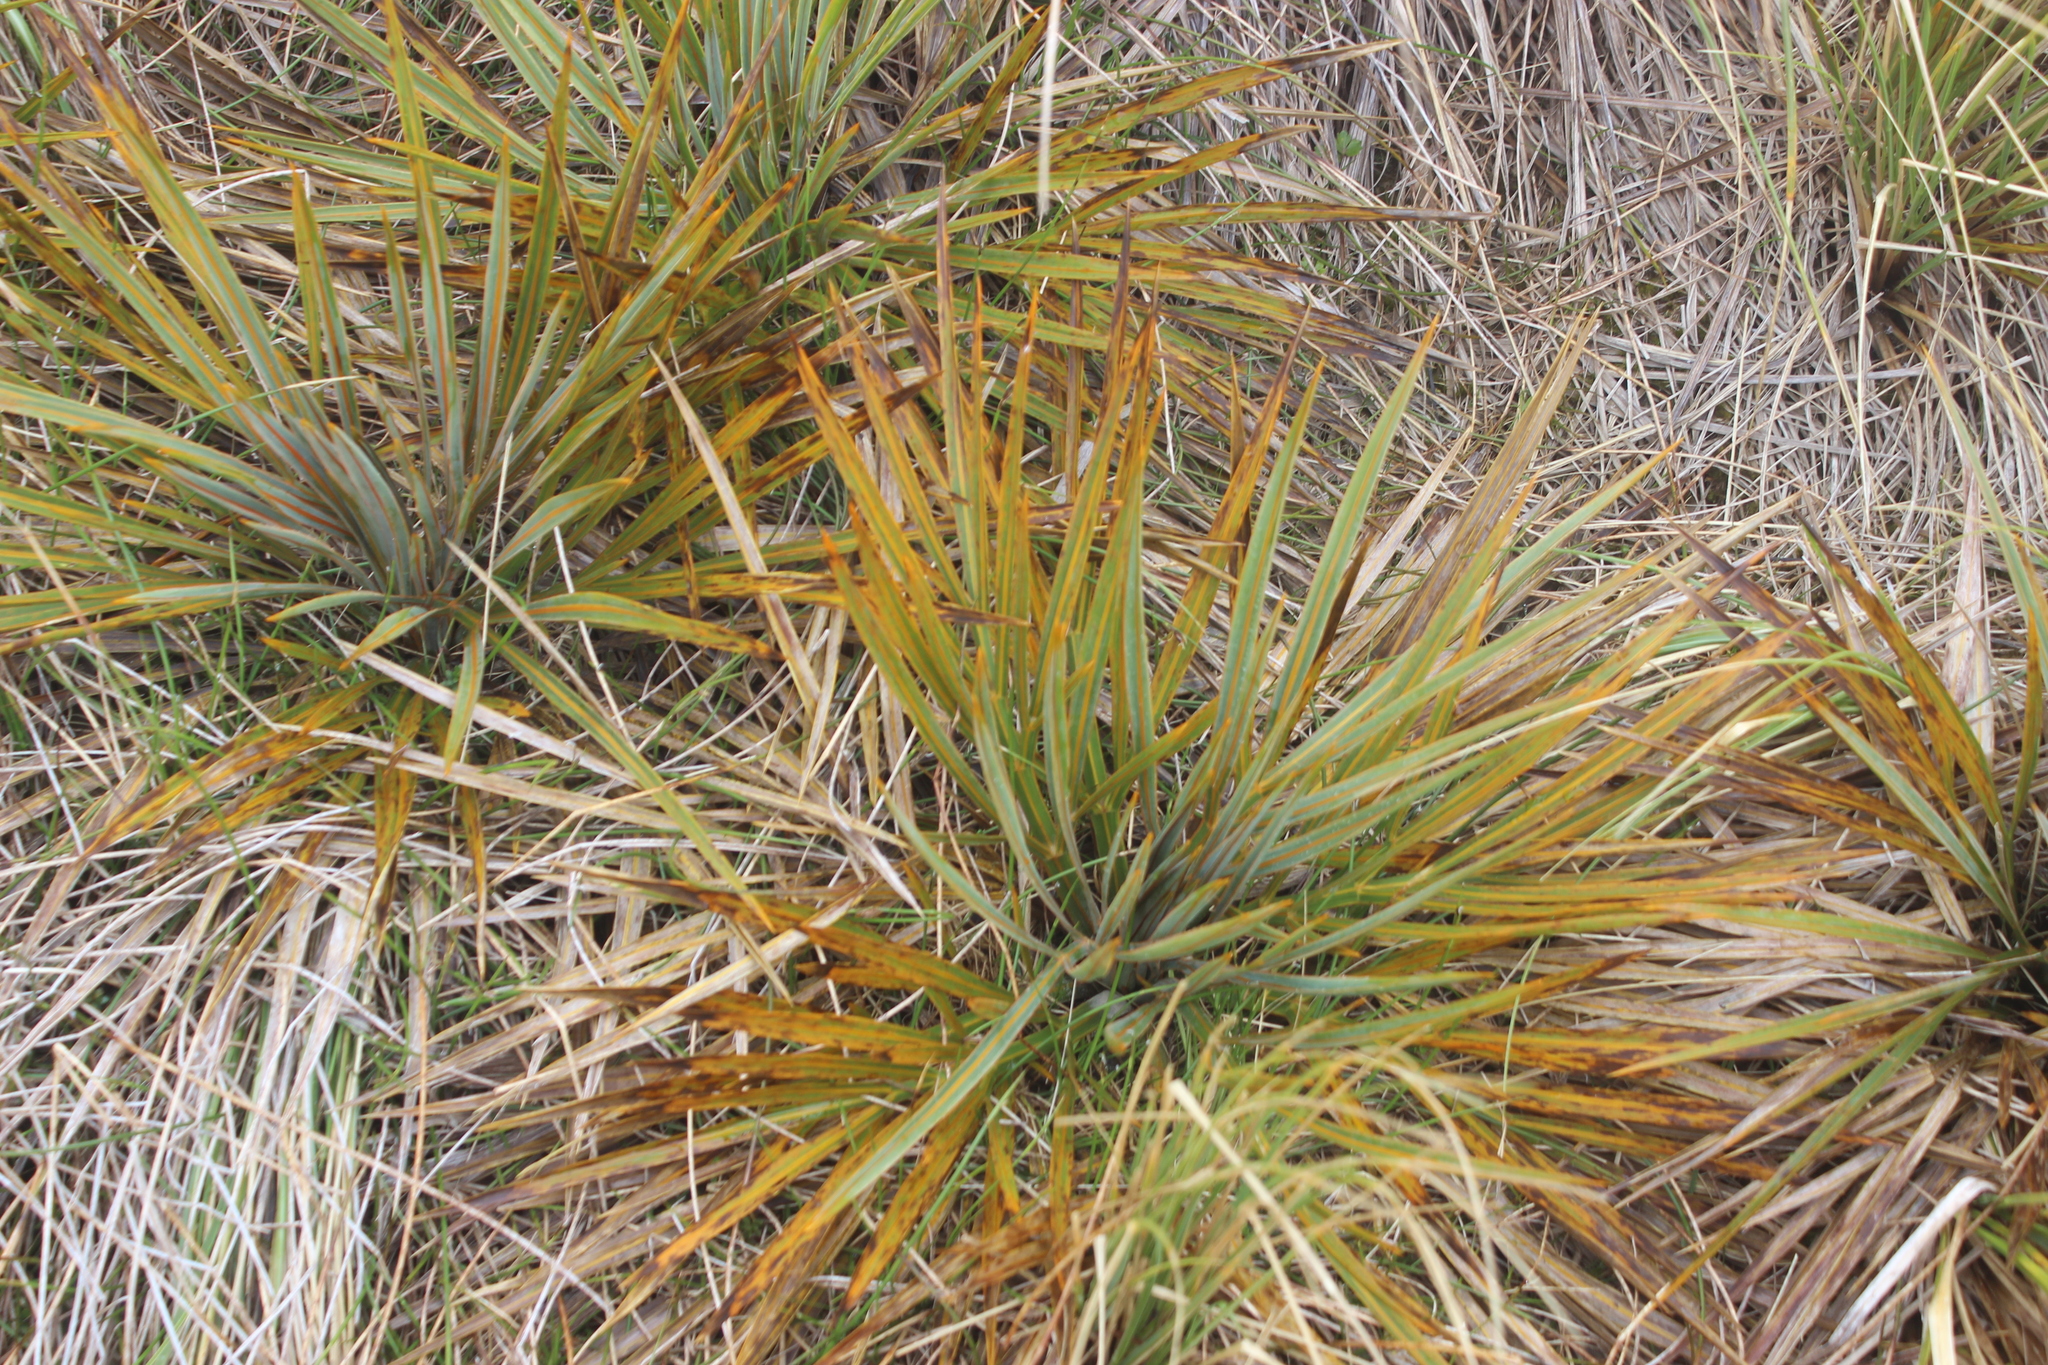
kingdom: Plantae
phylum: Tracheophyta
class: Magnoliopsida
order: Apiales
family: Apiaceae
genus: Aciphylla
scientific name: Aciphylla colensoi
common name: Colenso's spaniard
